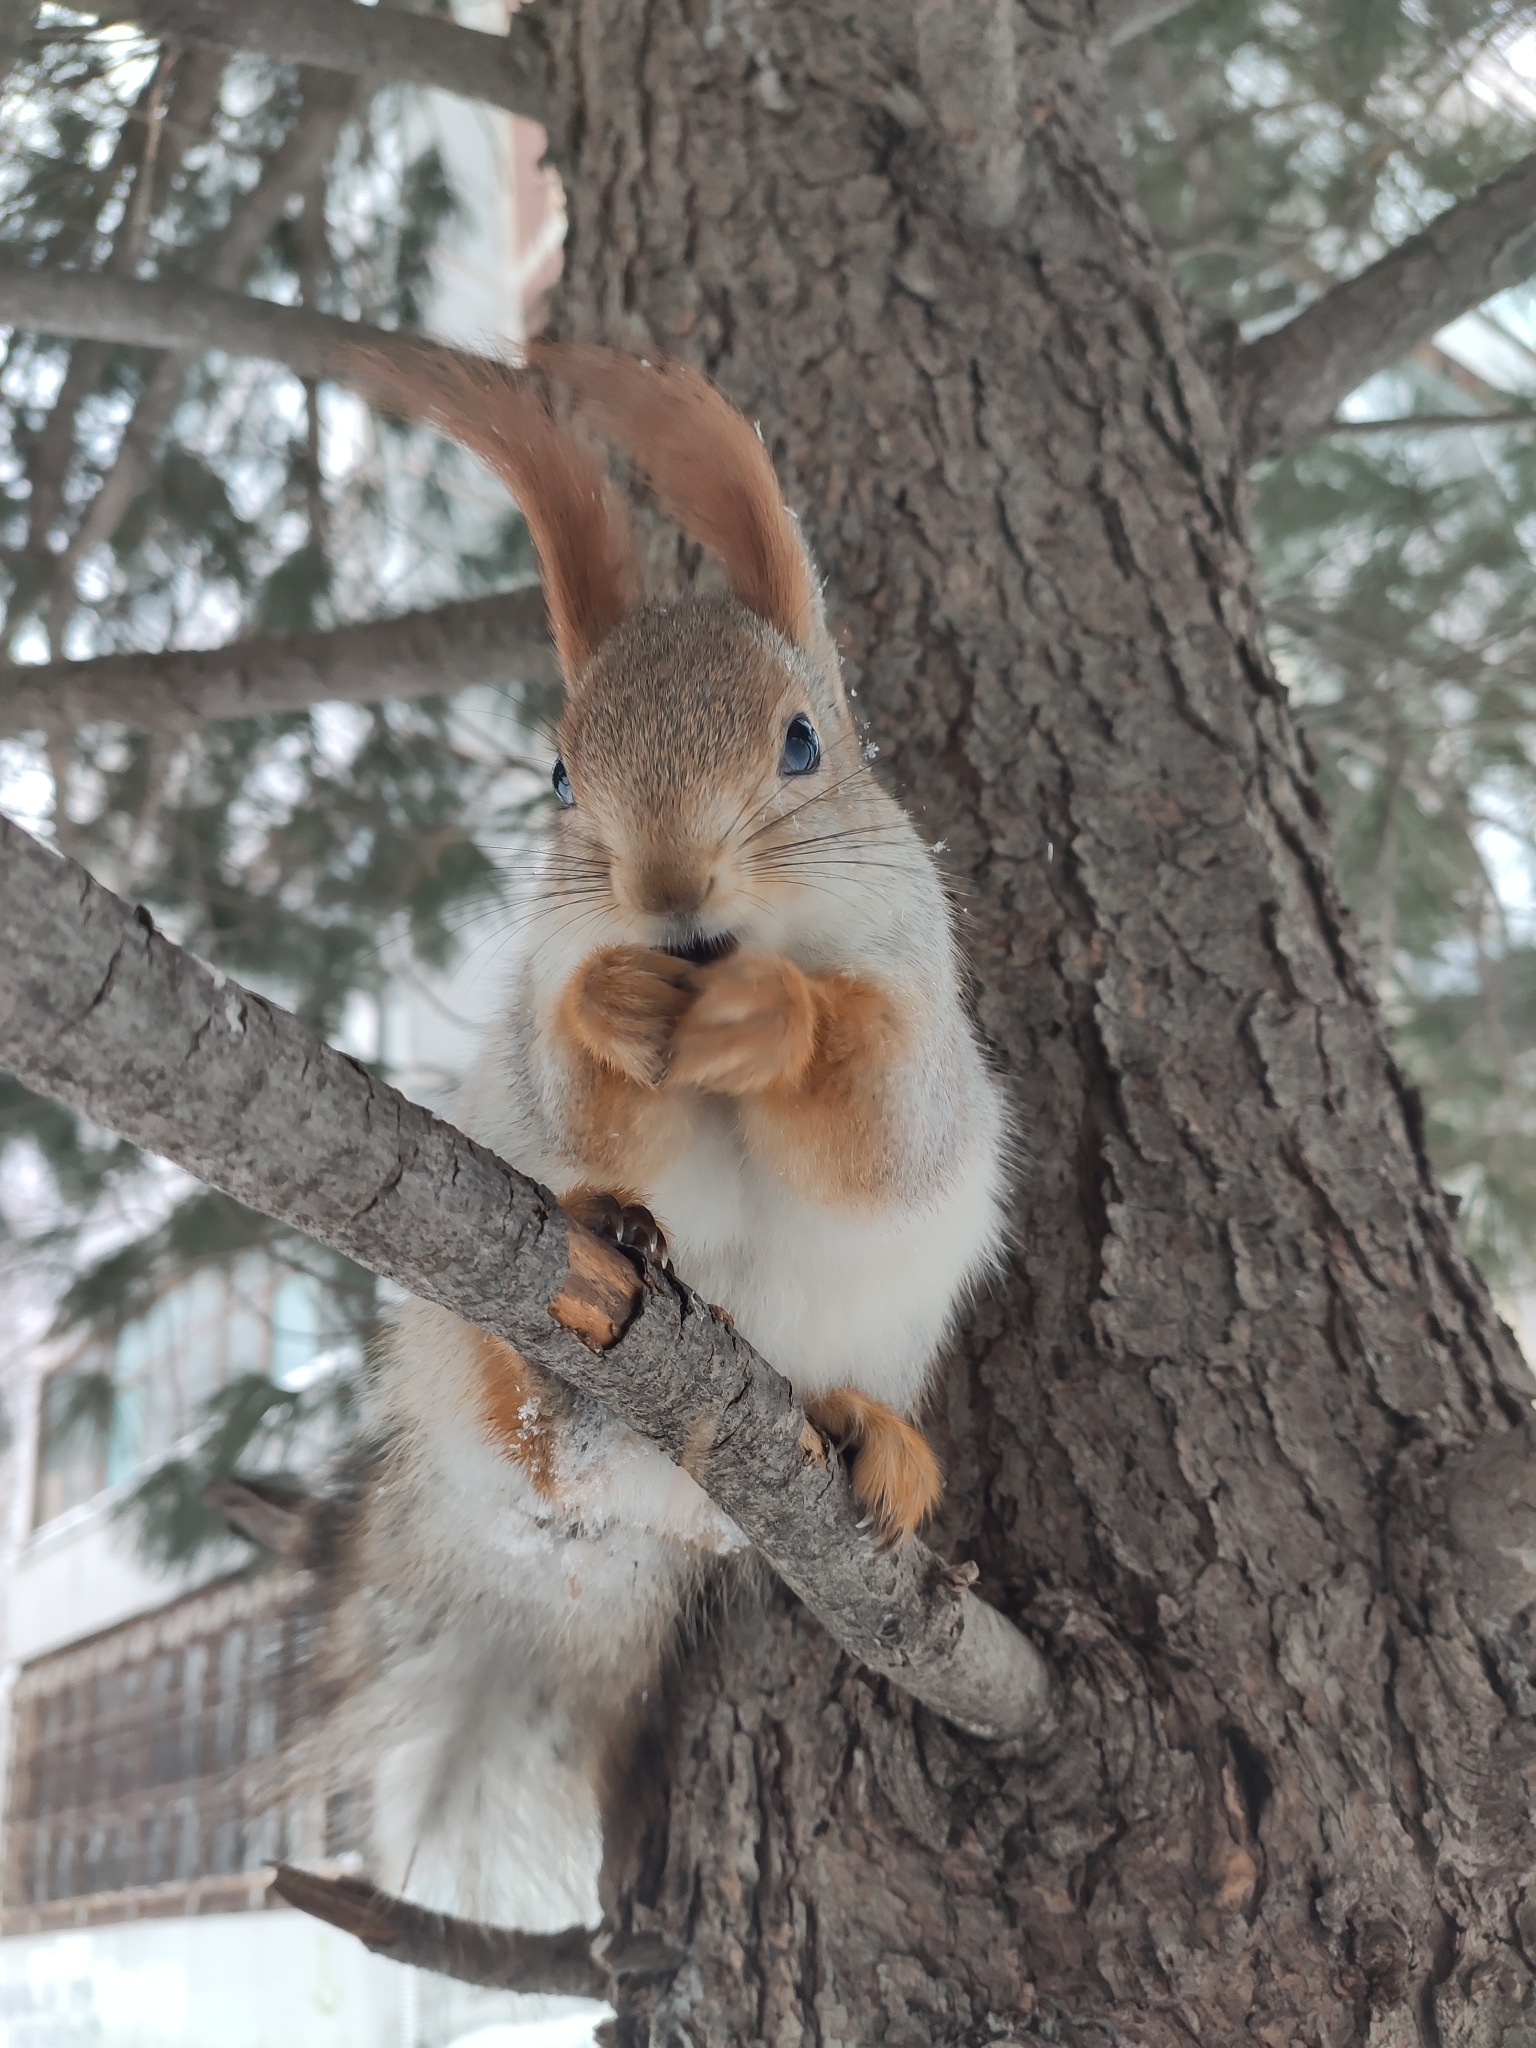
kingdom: Animalia
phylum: Chordata
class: Mammalia
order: Rodentia
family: Sciuridae
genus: Sciurus
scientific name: Sciurus vulgaris
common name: Eurasian red squirrel
